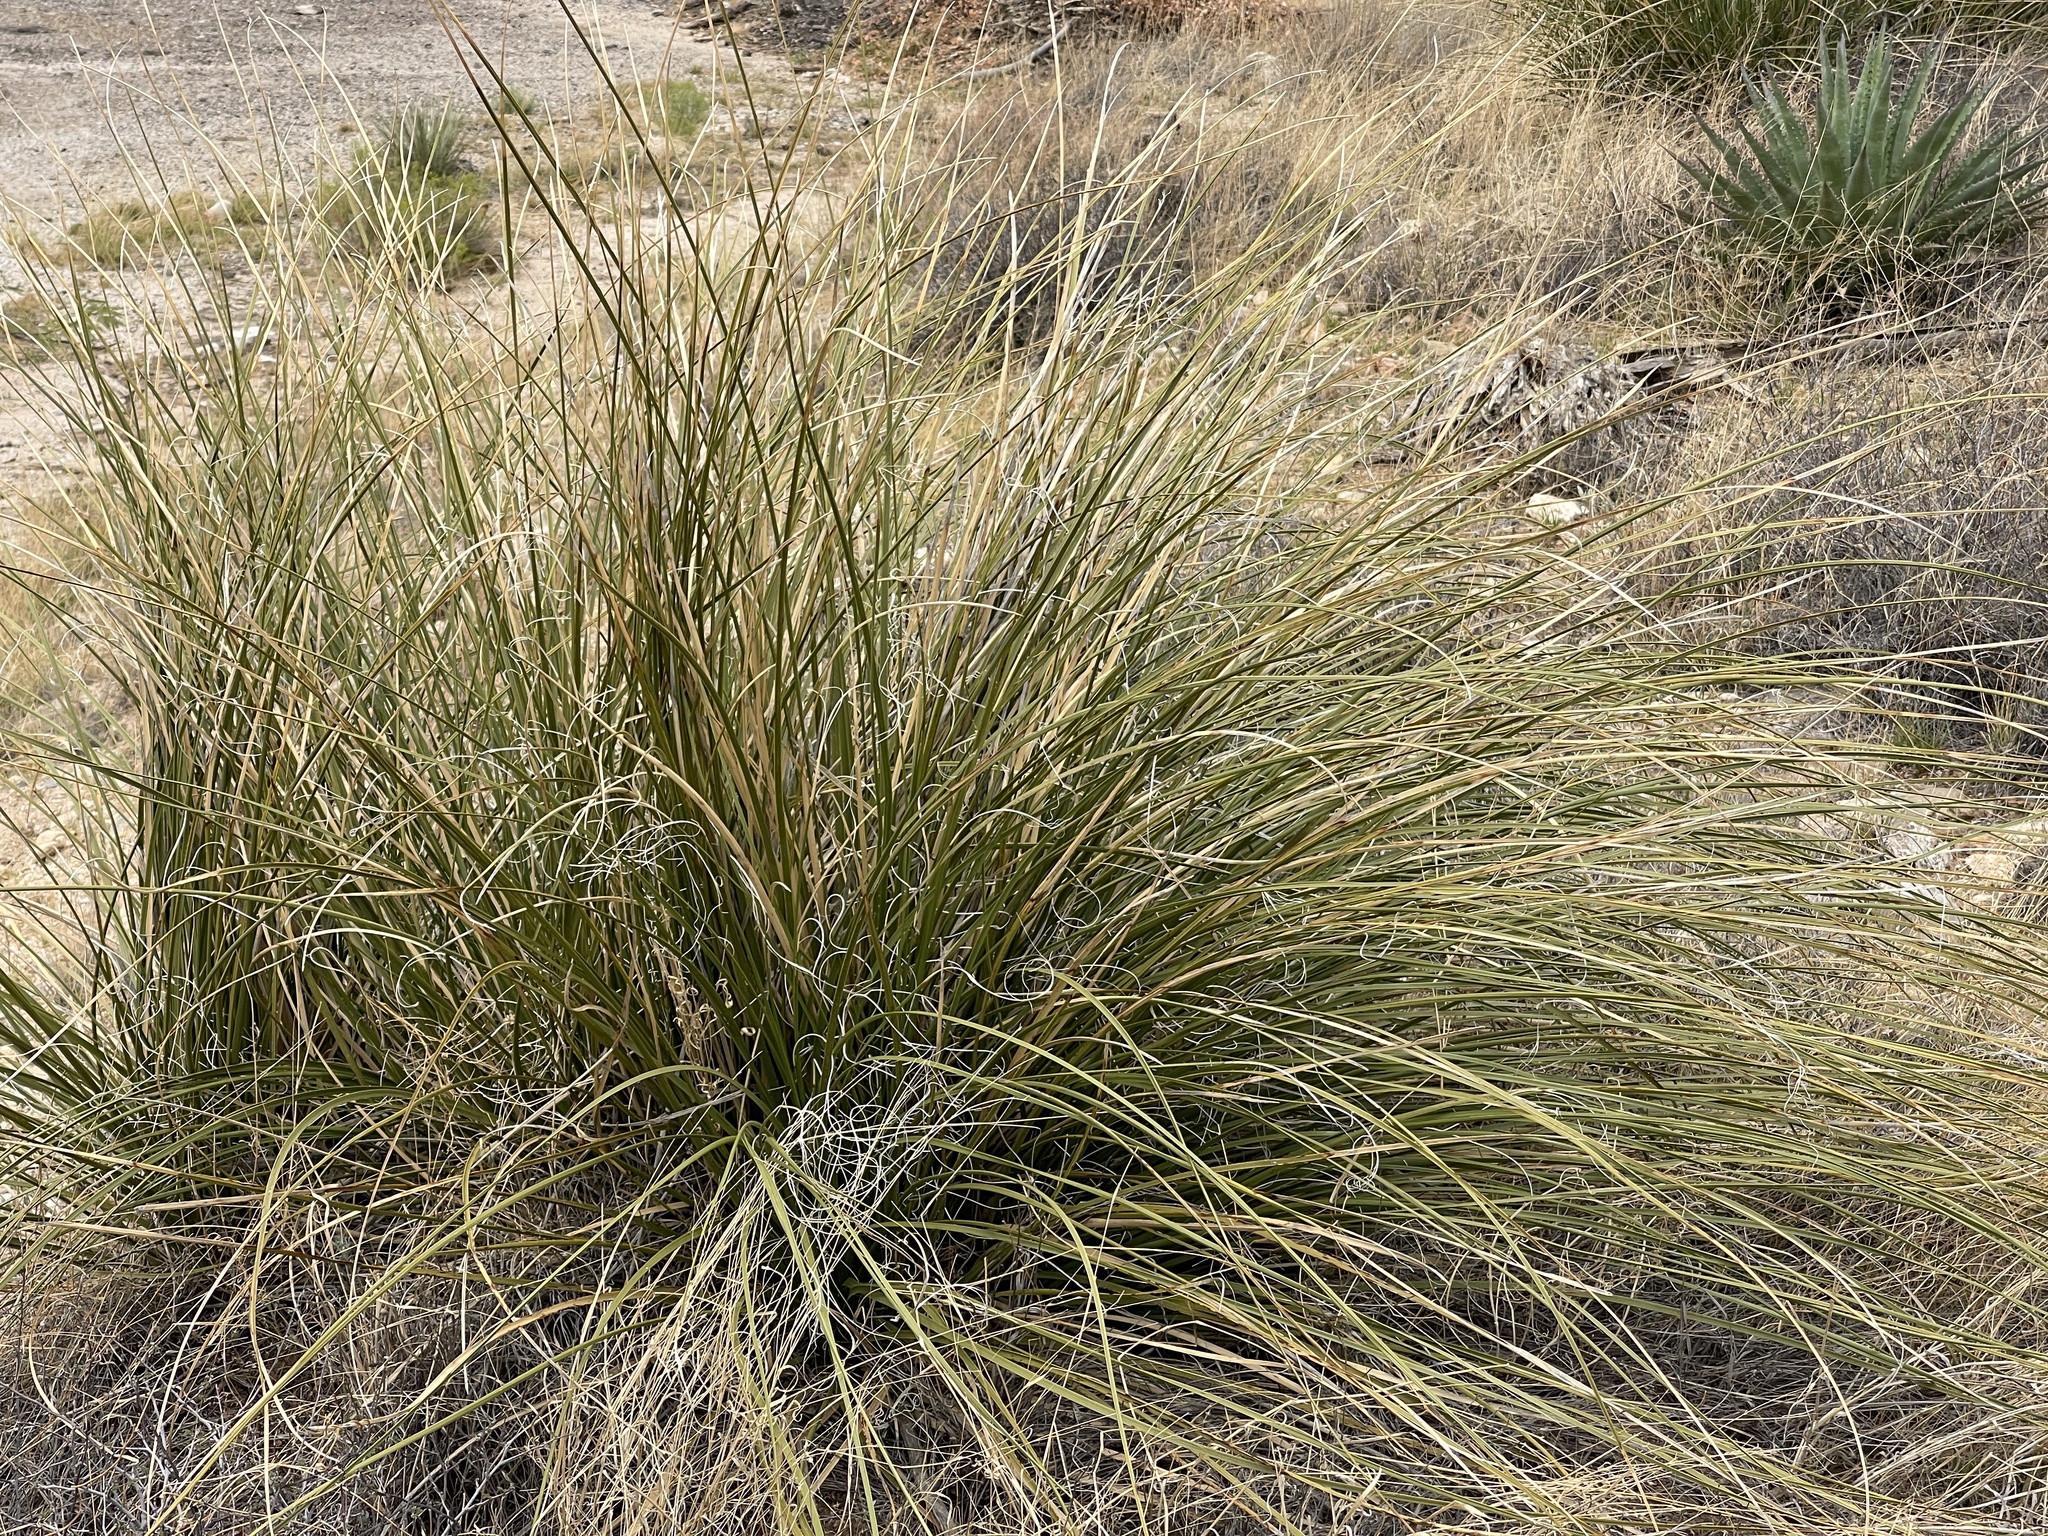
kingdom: Plantae
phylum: Tracheophyta
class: Liliopsida
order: Asparagales
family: Asparagaceae
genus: Nolina
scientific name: Nolina microcarpa
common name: Bear-grass
